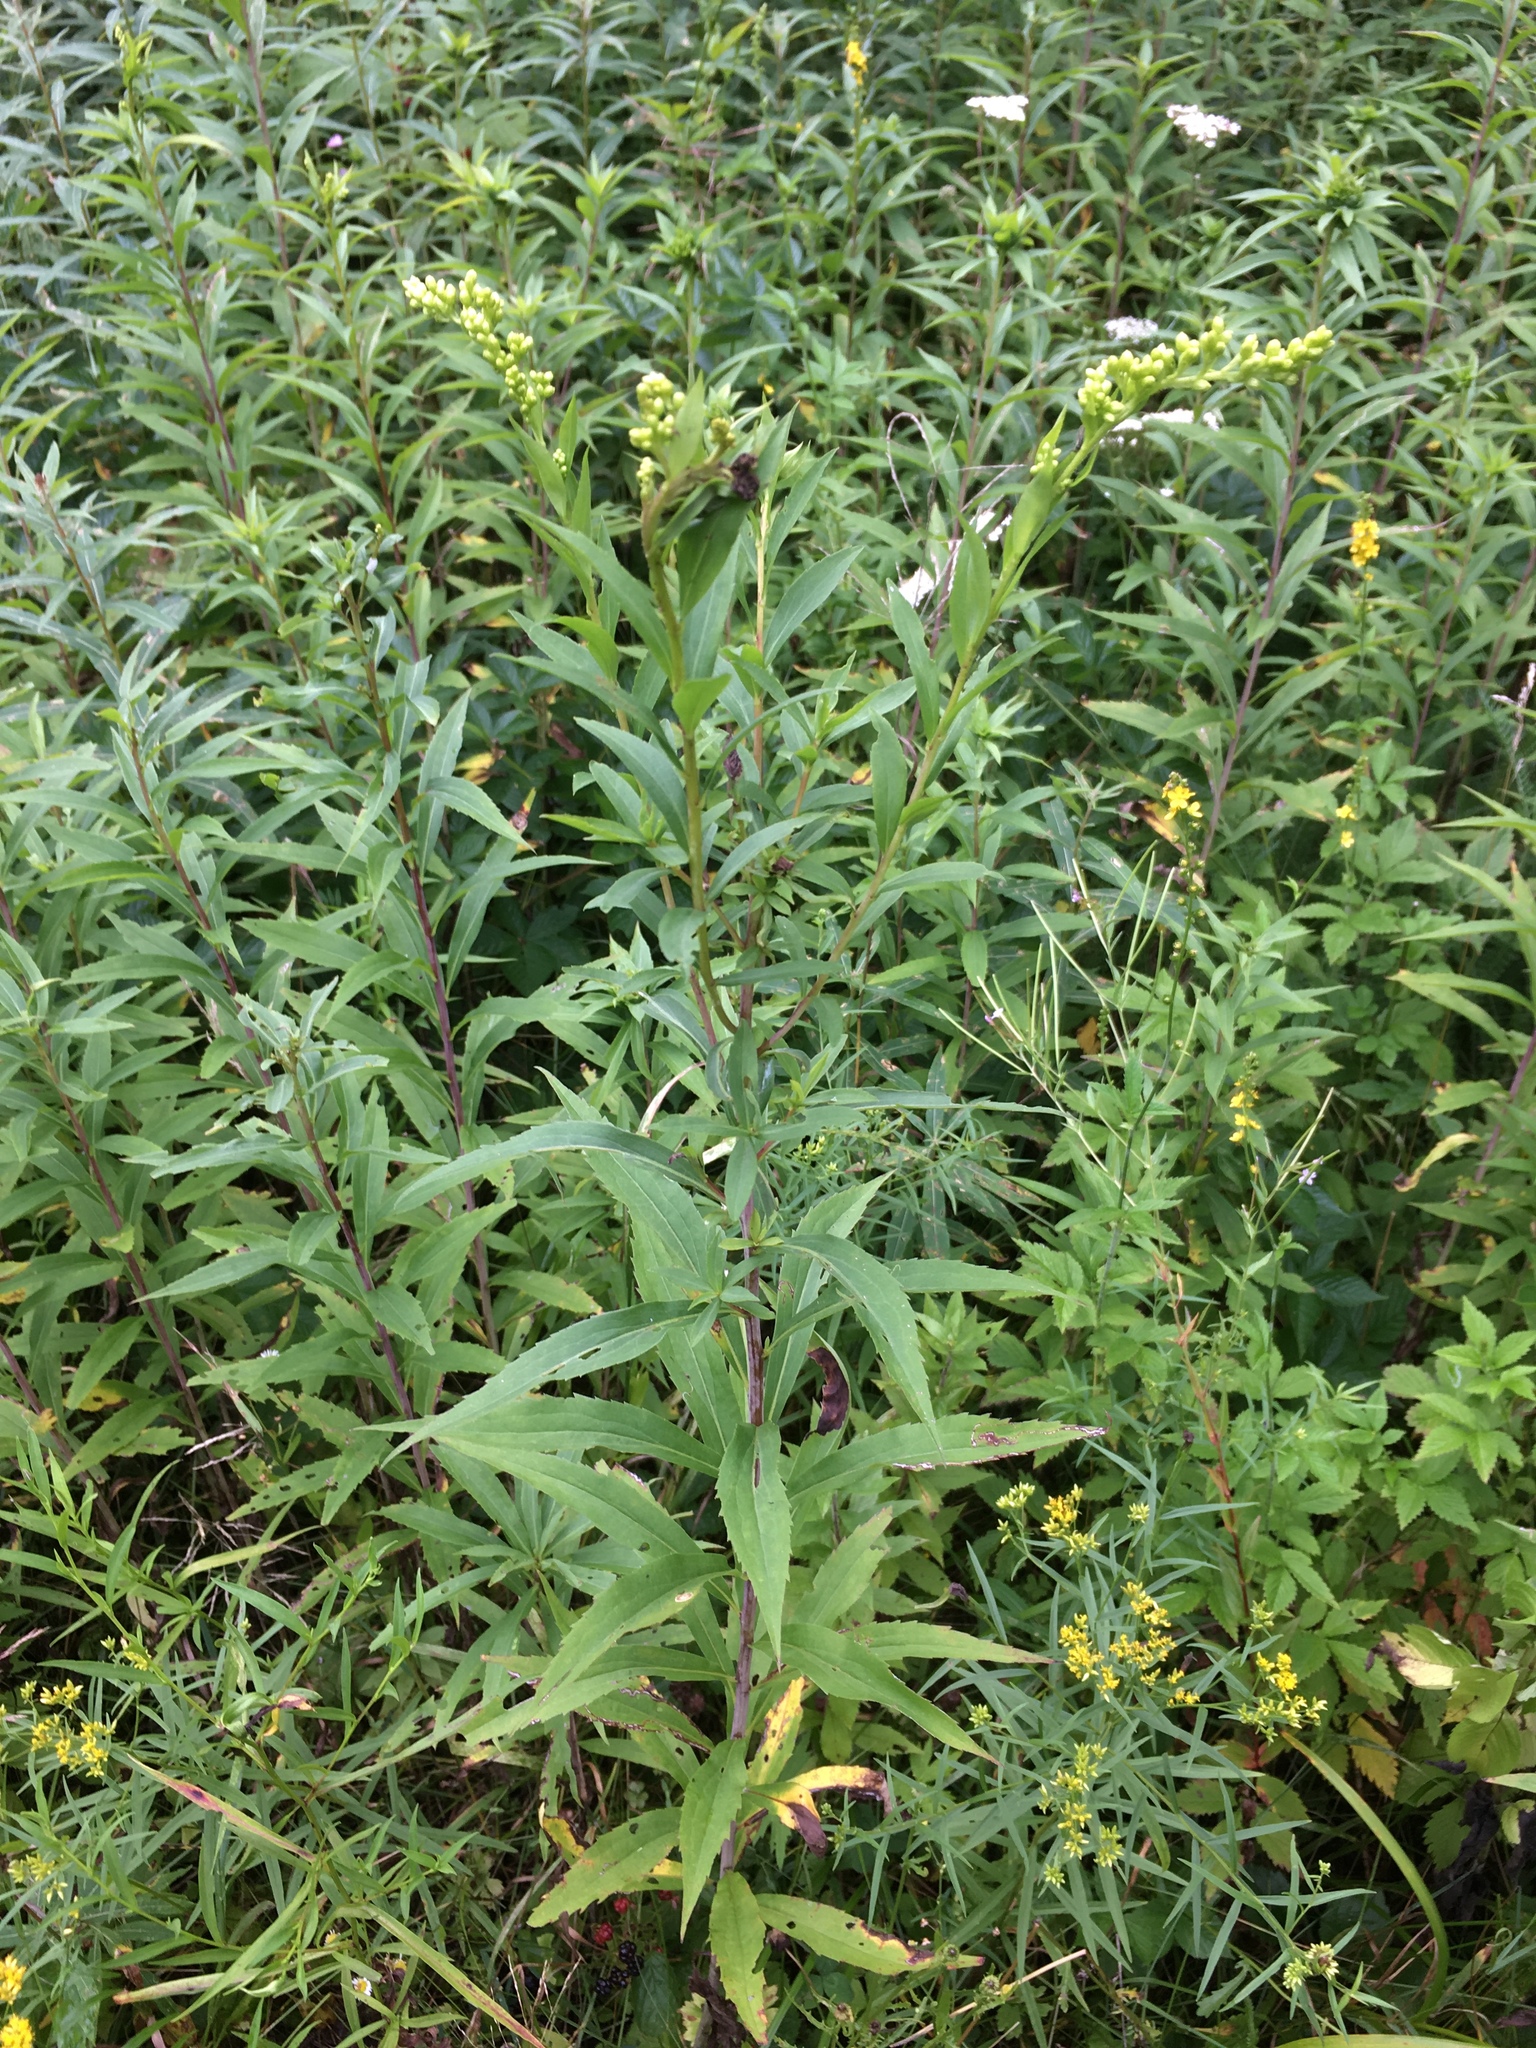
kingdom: Plantae
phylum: Tracheophyta
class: Magnoliopsida
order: Asterales
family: Asteraceae
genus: Solidago
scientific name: Solidago gigantea
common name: Giant goldenrod
